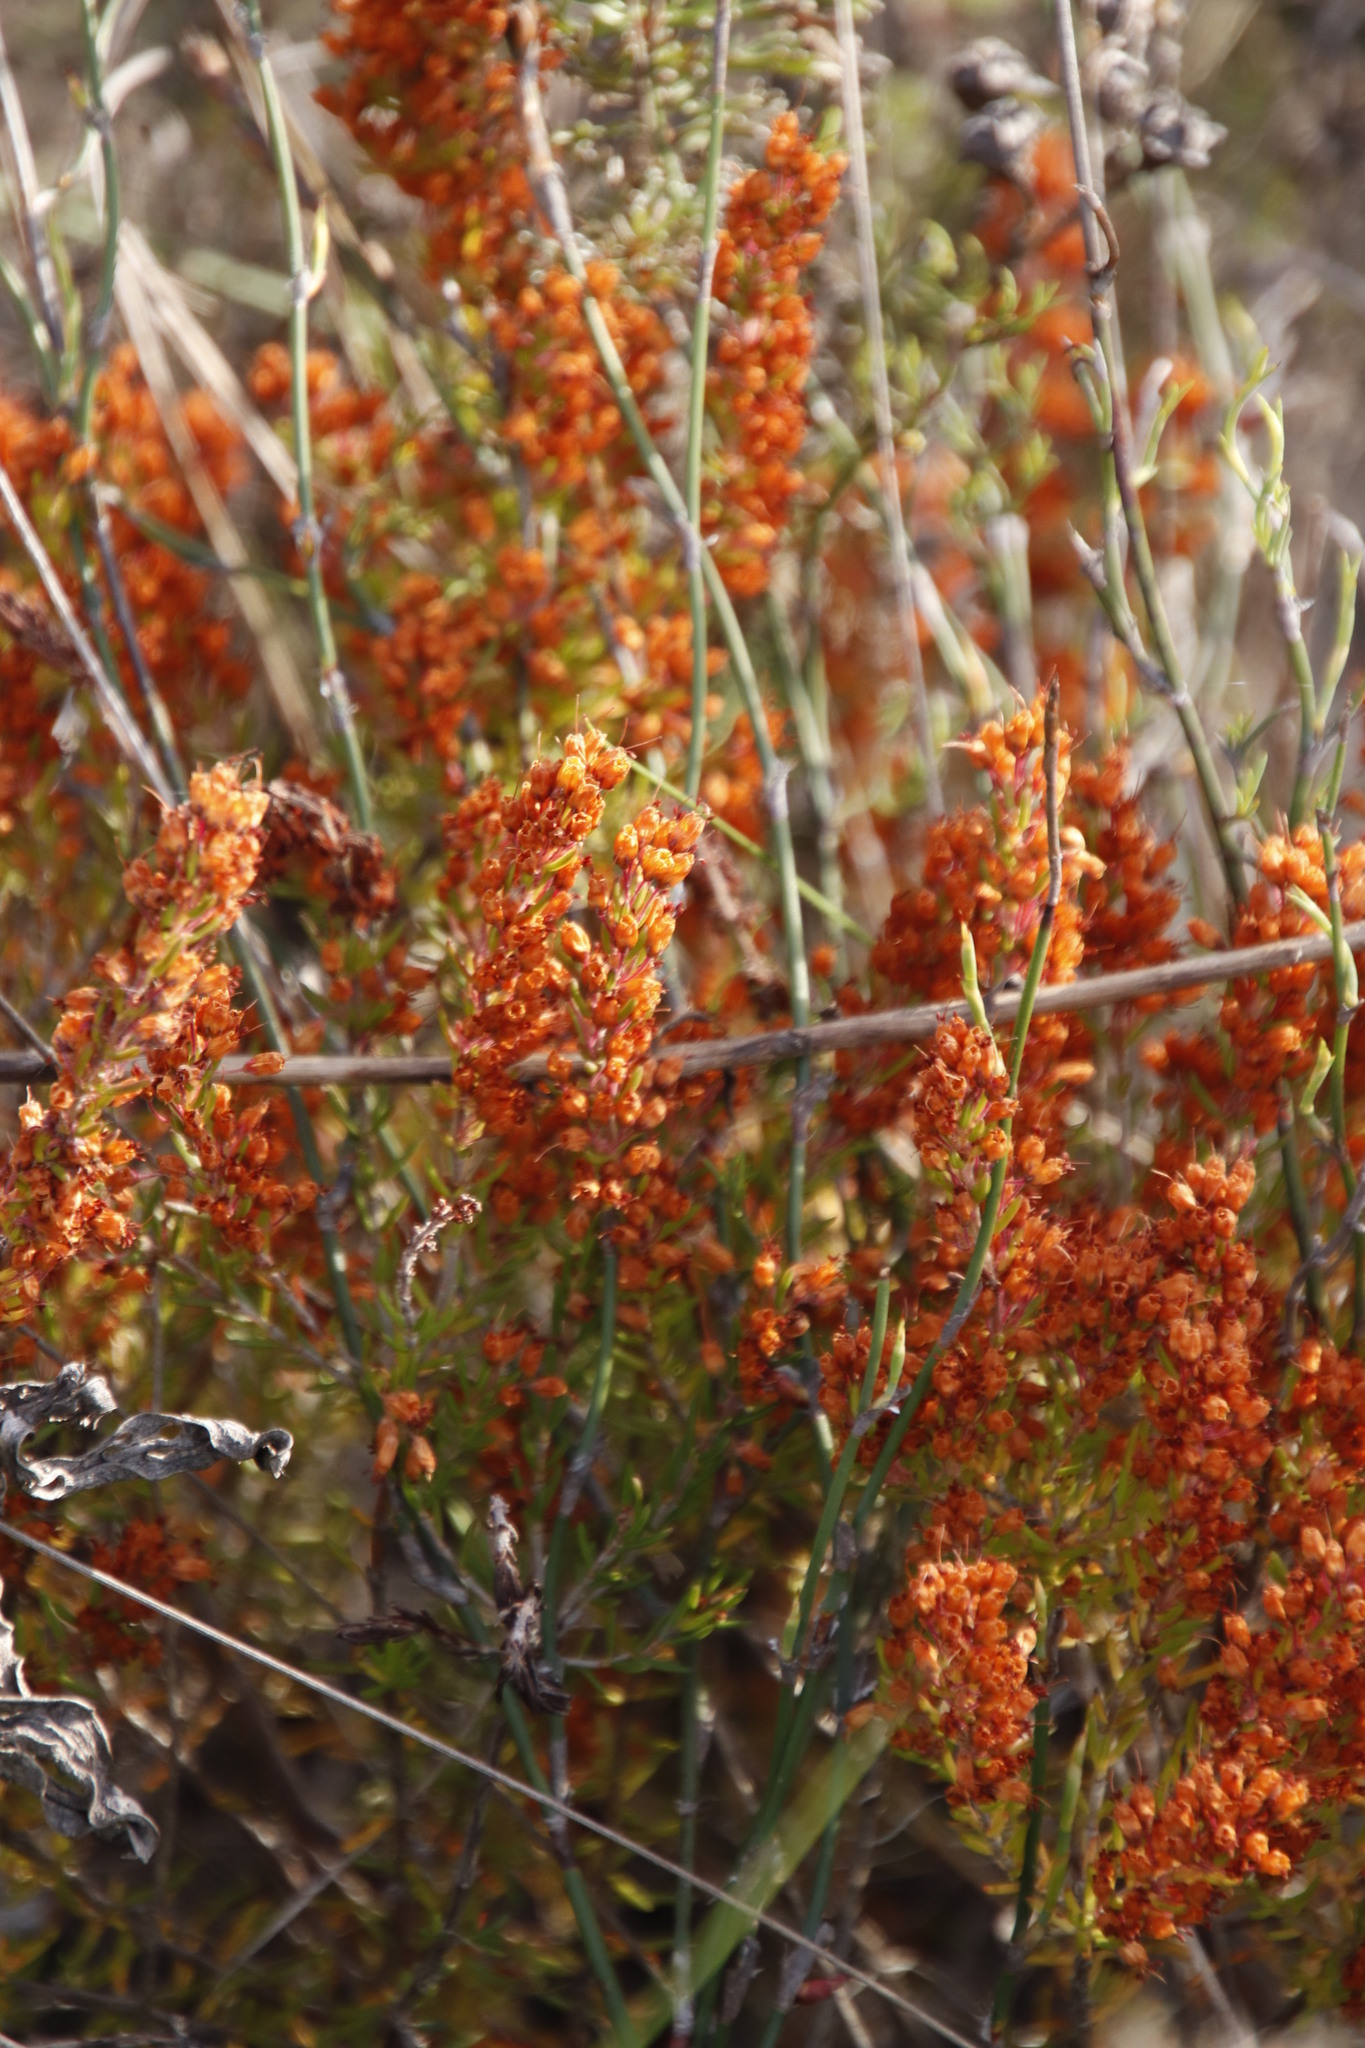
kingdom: Plantae
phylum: Tracheophyta
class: Magnoliopsida
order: Ericales
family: Ericaceae
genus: Erica
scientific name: Erica nudiflora
